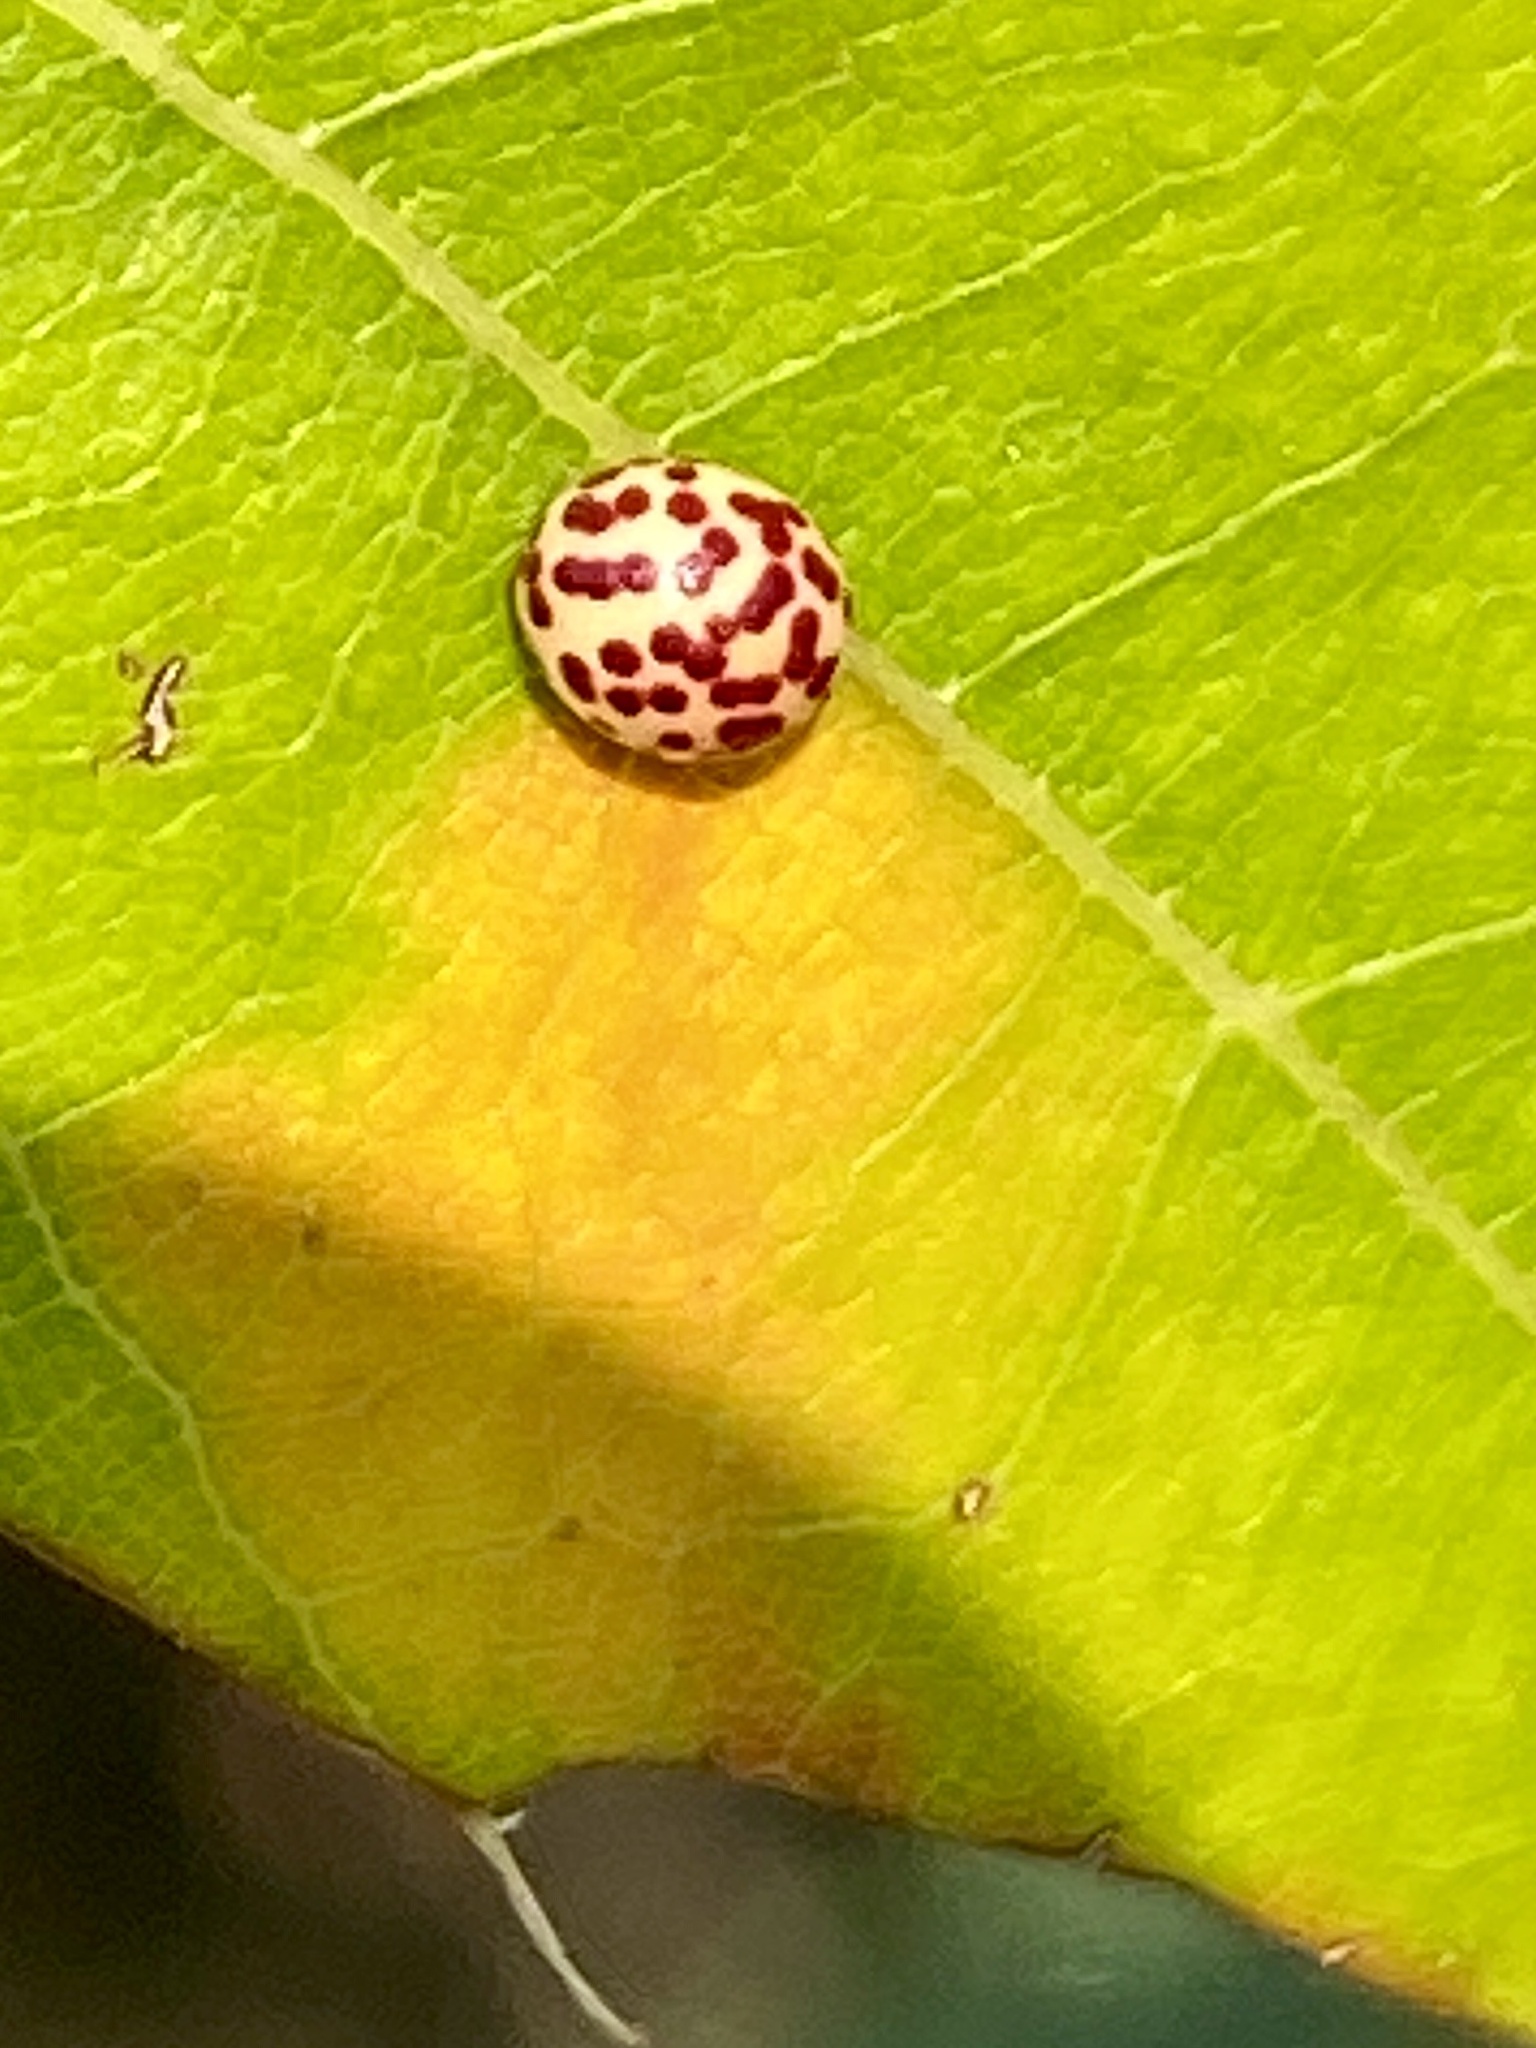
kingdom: Animalia
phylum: Arthropoda
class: Insecta
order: Hymenoptera
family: Cynipidae
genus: Zopheroteras
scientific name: Zopheroteras
